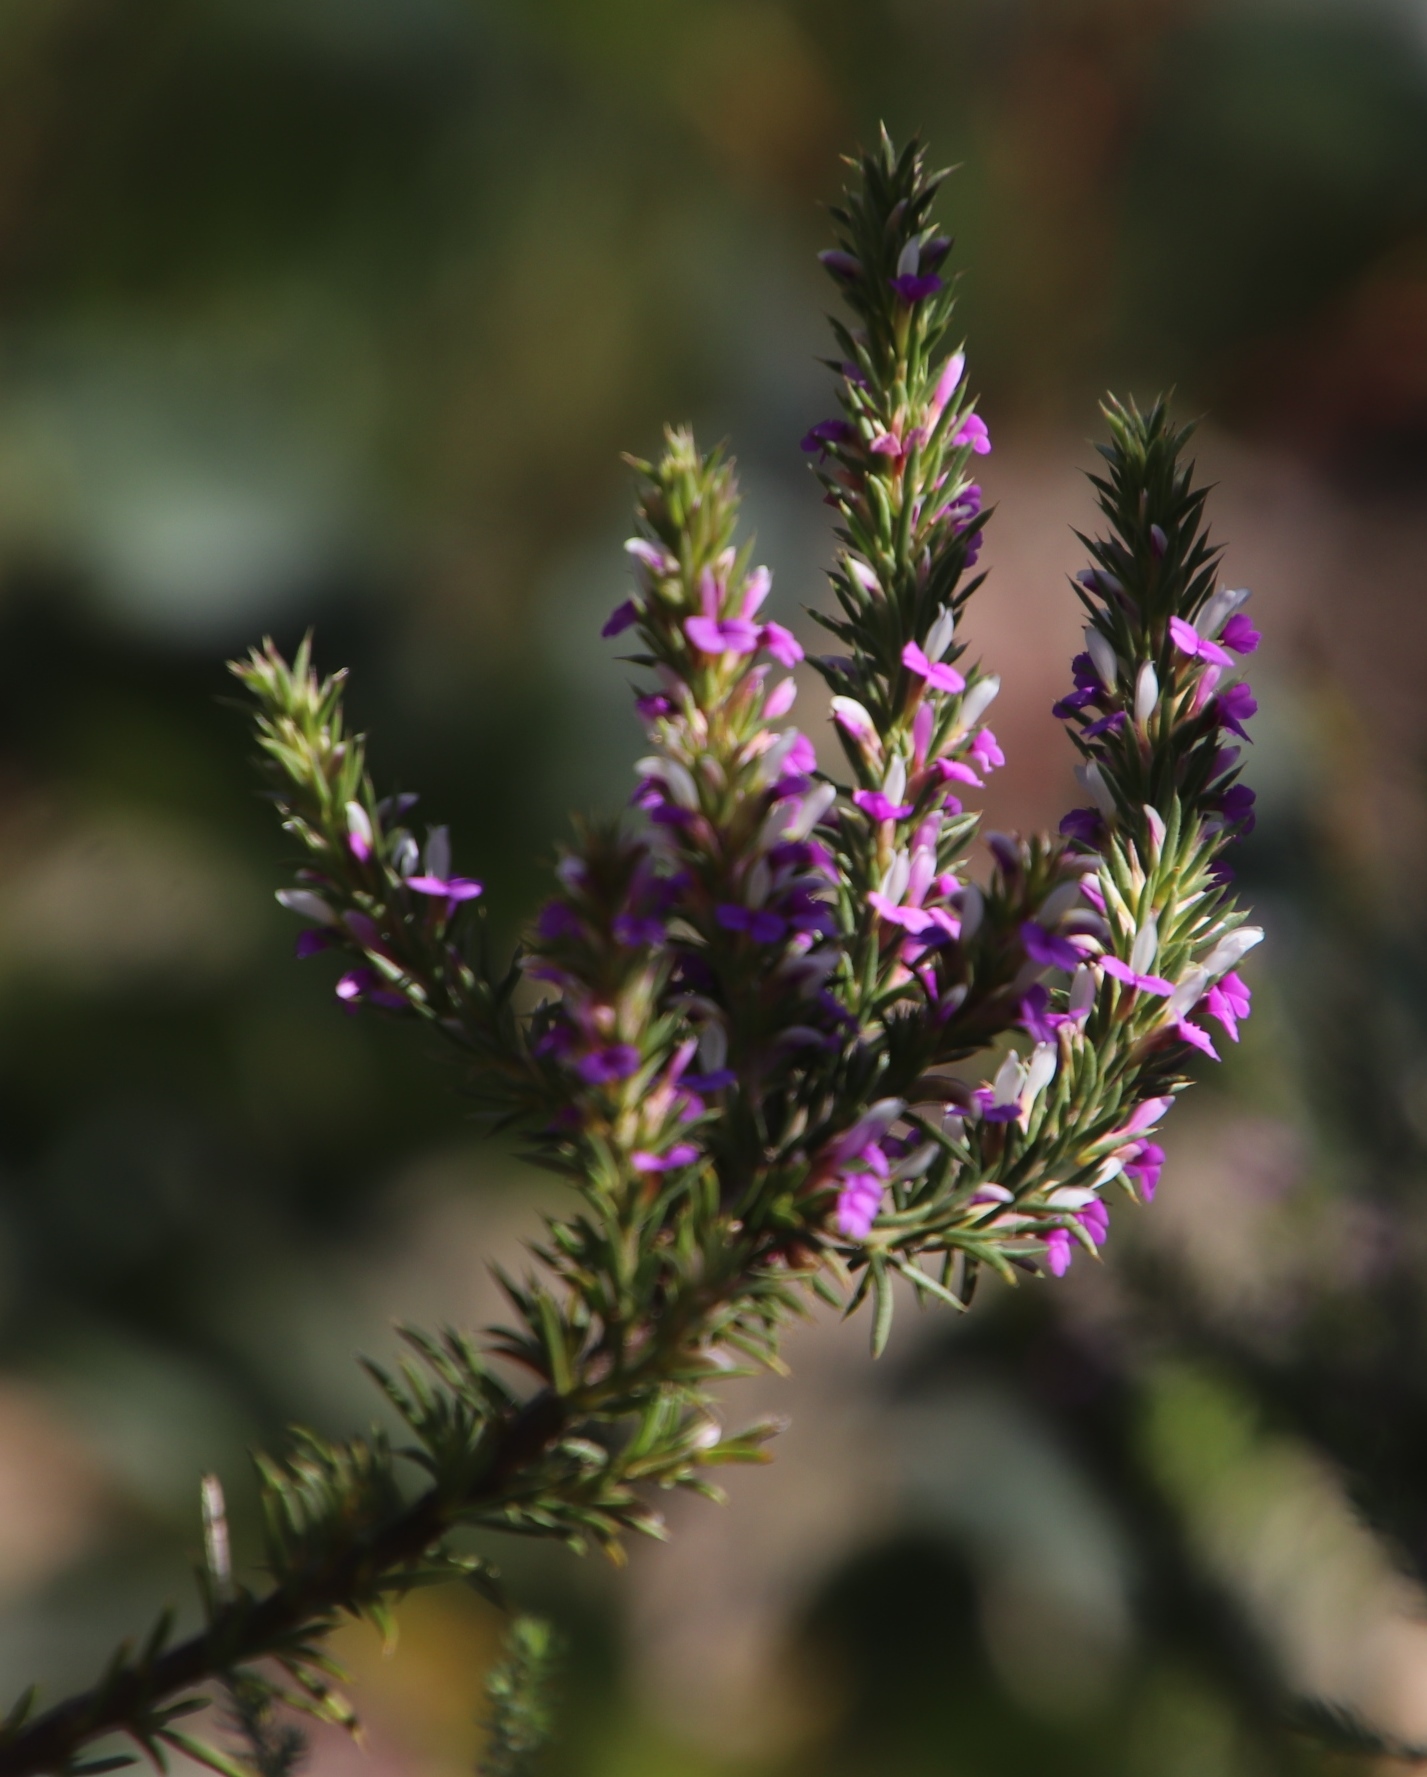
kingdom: Plantae
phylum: Tracheophyta
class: Magnoliopsida
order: Fabales
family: Polygalaceae
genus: Muraltia
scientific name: Muraltia heisteria
